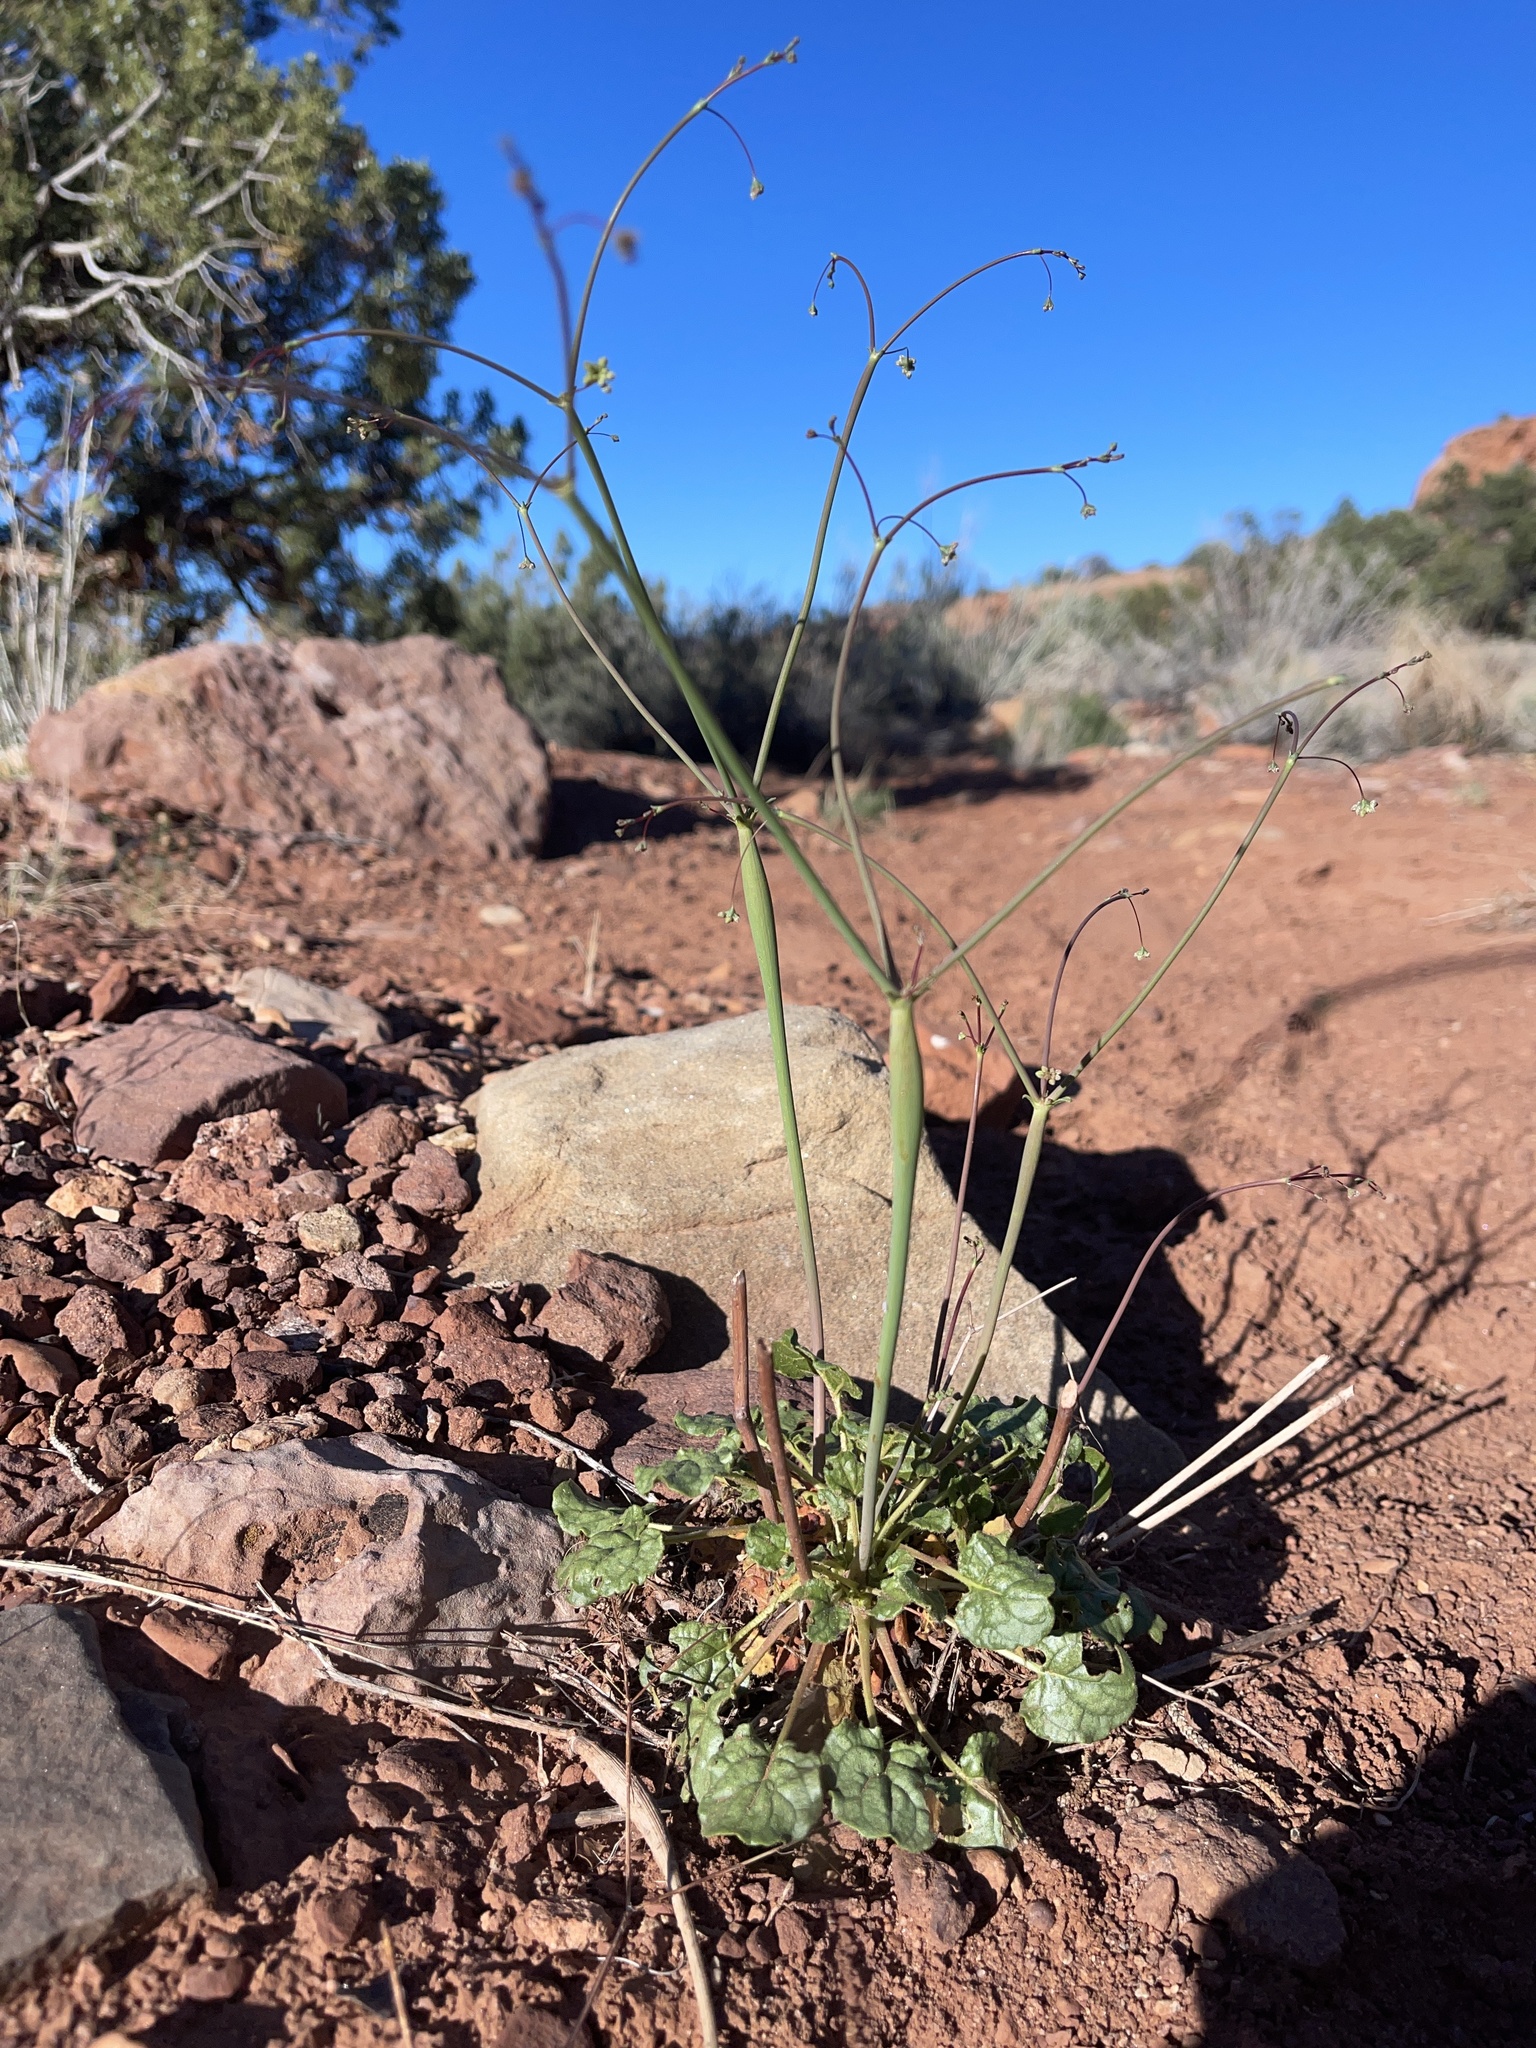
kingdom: Plantae
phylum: Tracheophyta
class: Magnoliopsida
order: Caryophyllales
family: Polygonaceae
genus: Eriogonum
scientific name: Eriogonum inflatum
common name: Desert trumpet
